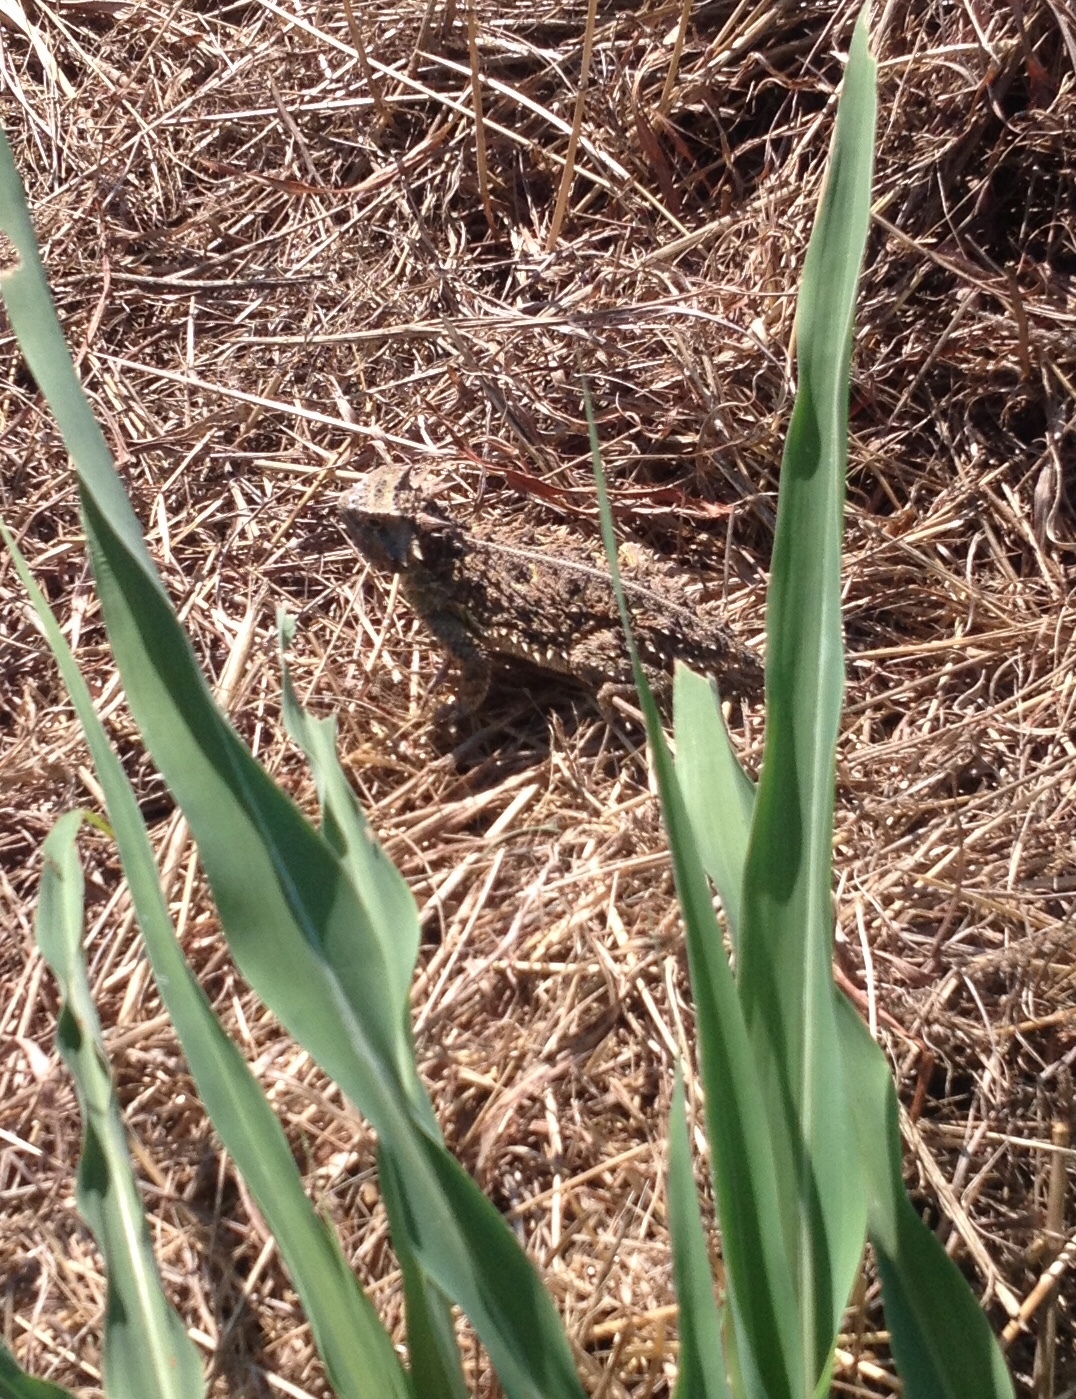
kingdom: Animalia
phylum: Chordata
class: Squamata
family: Phrynosomatidae
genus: Phrynosoma
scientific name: Phrynosoma cornutum
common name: Texas horned lizard
